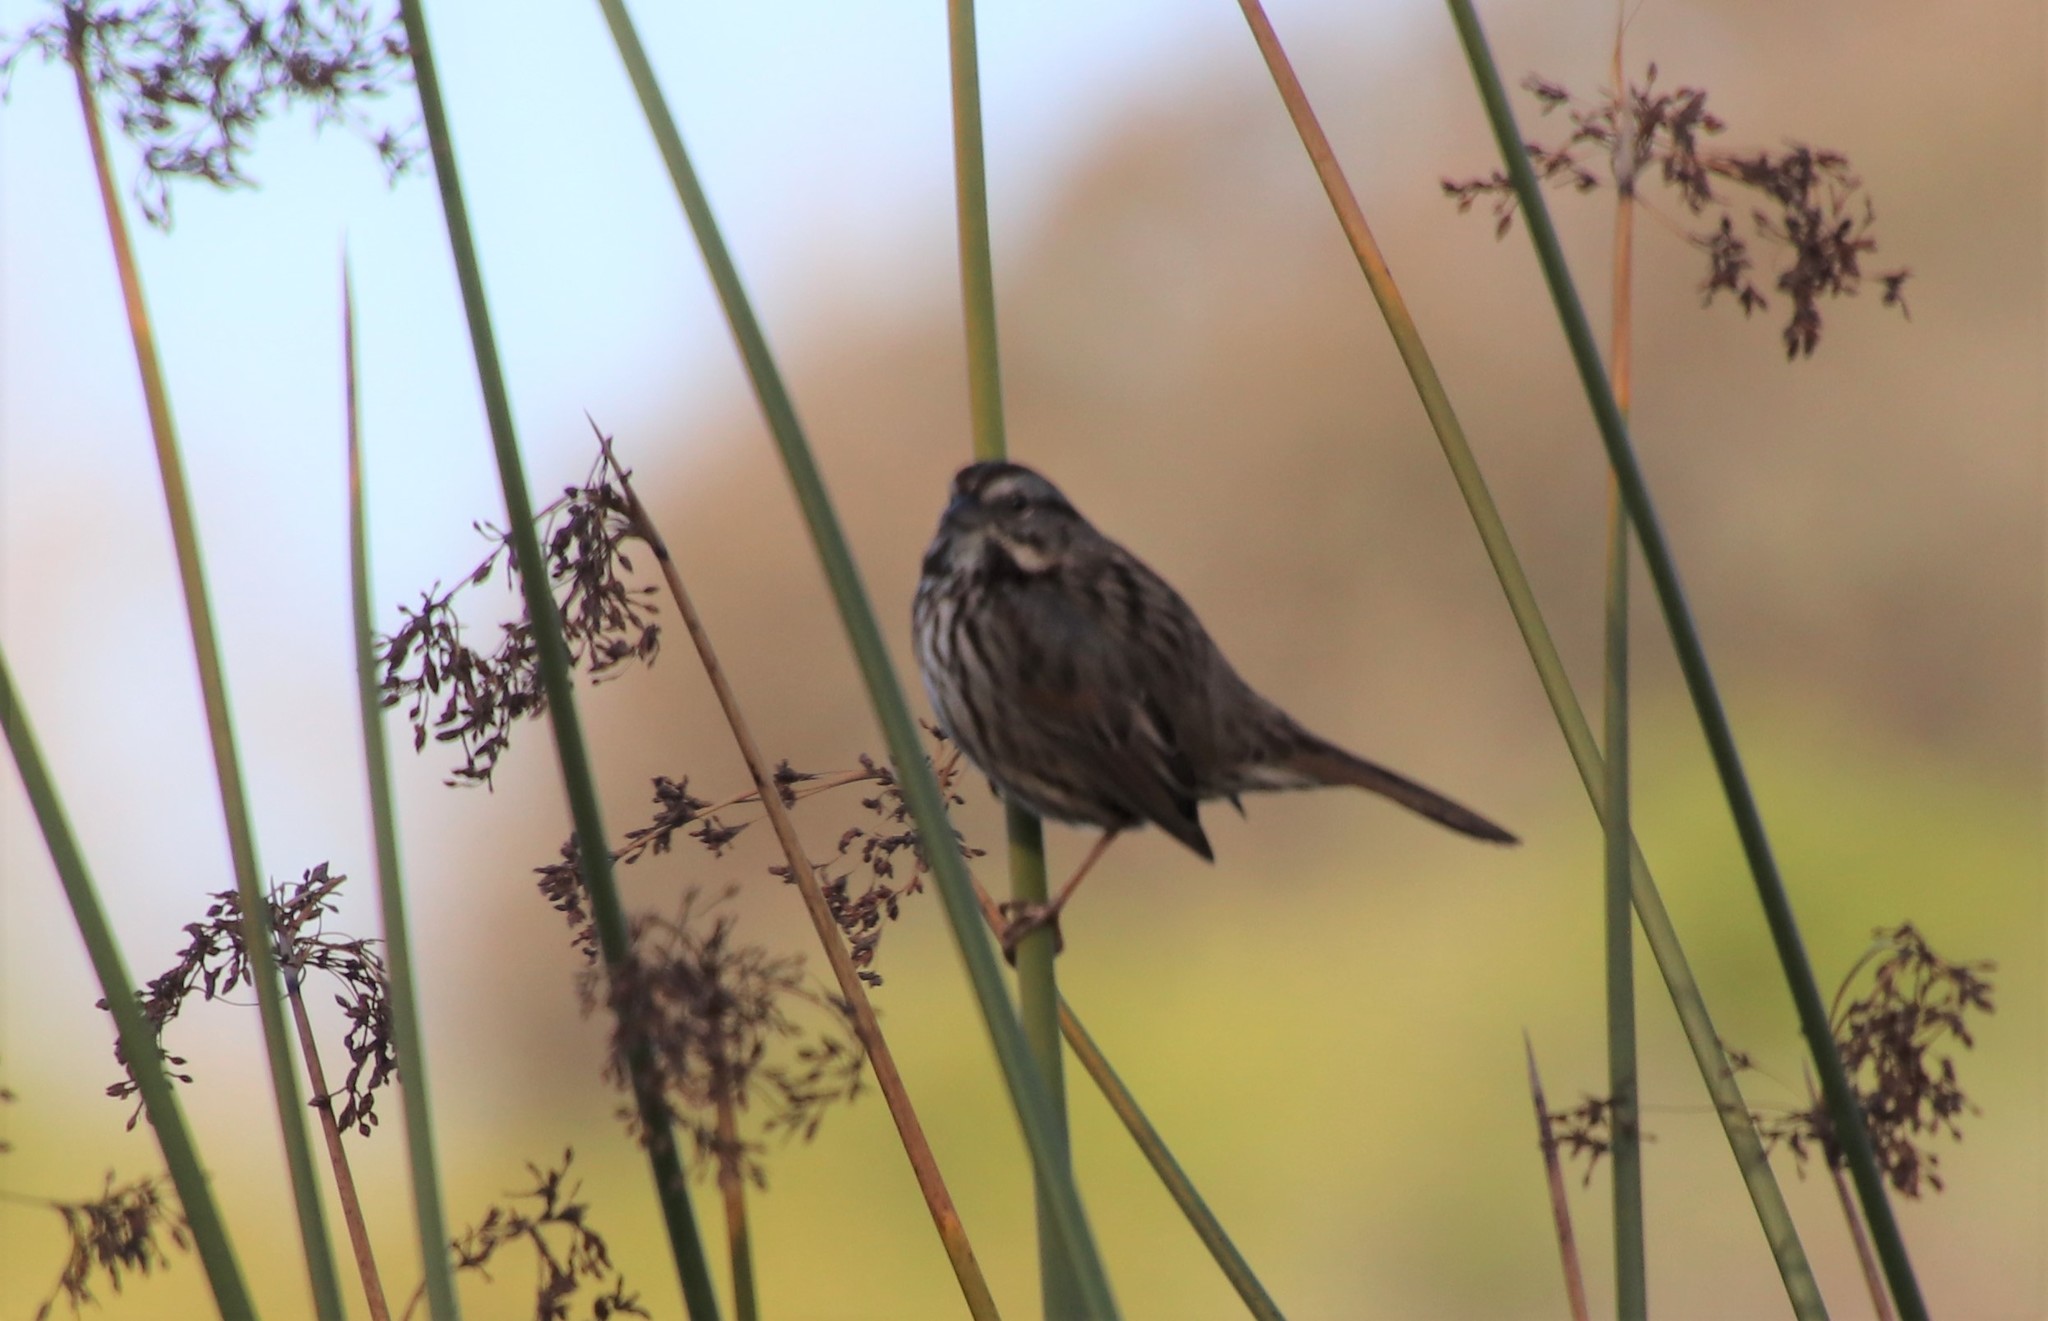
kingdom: Animalia
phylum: Chordata
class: Aves
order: Passeriformes
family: Passerellidae
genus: Melospiza
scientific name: Melospiza melodia
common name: Song sparrow
